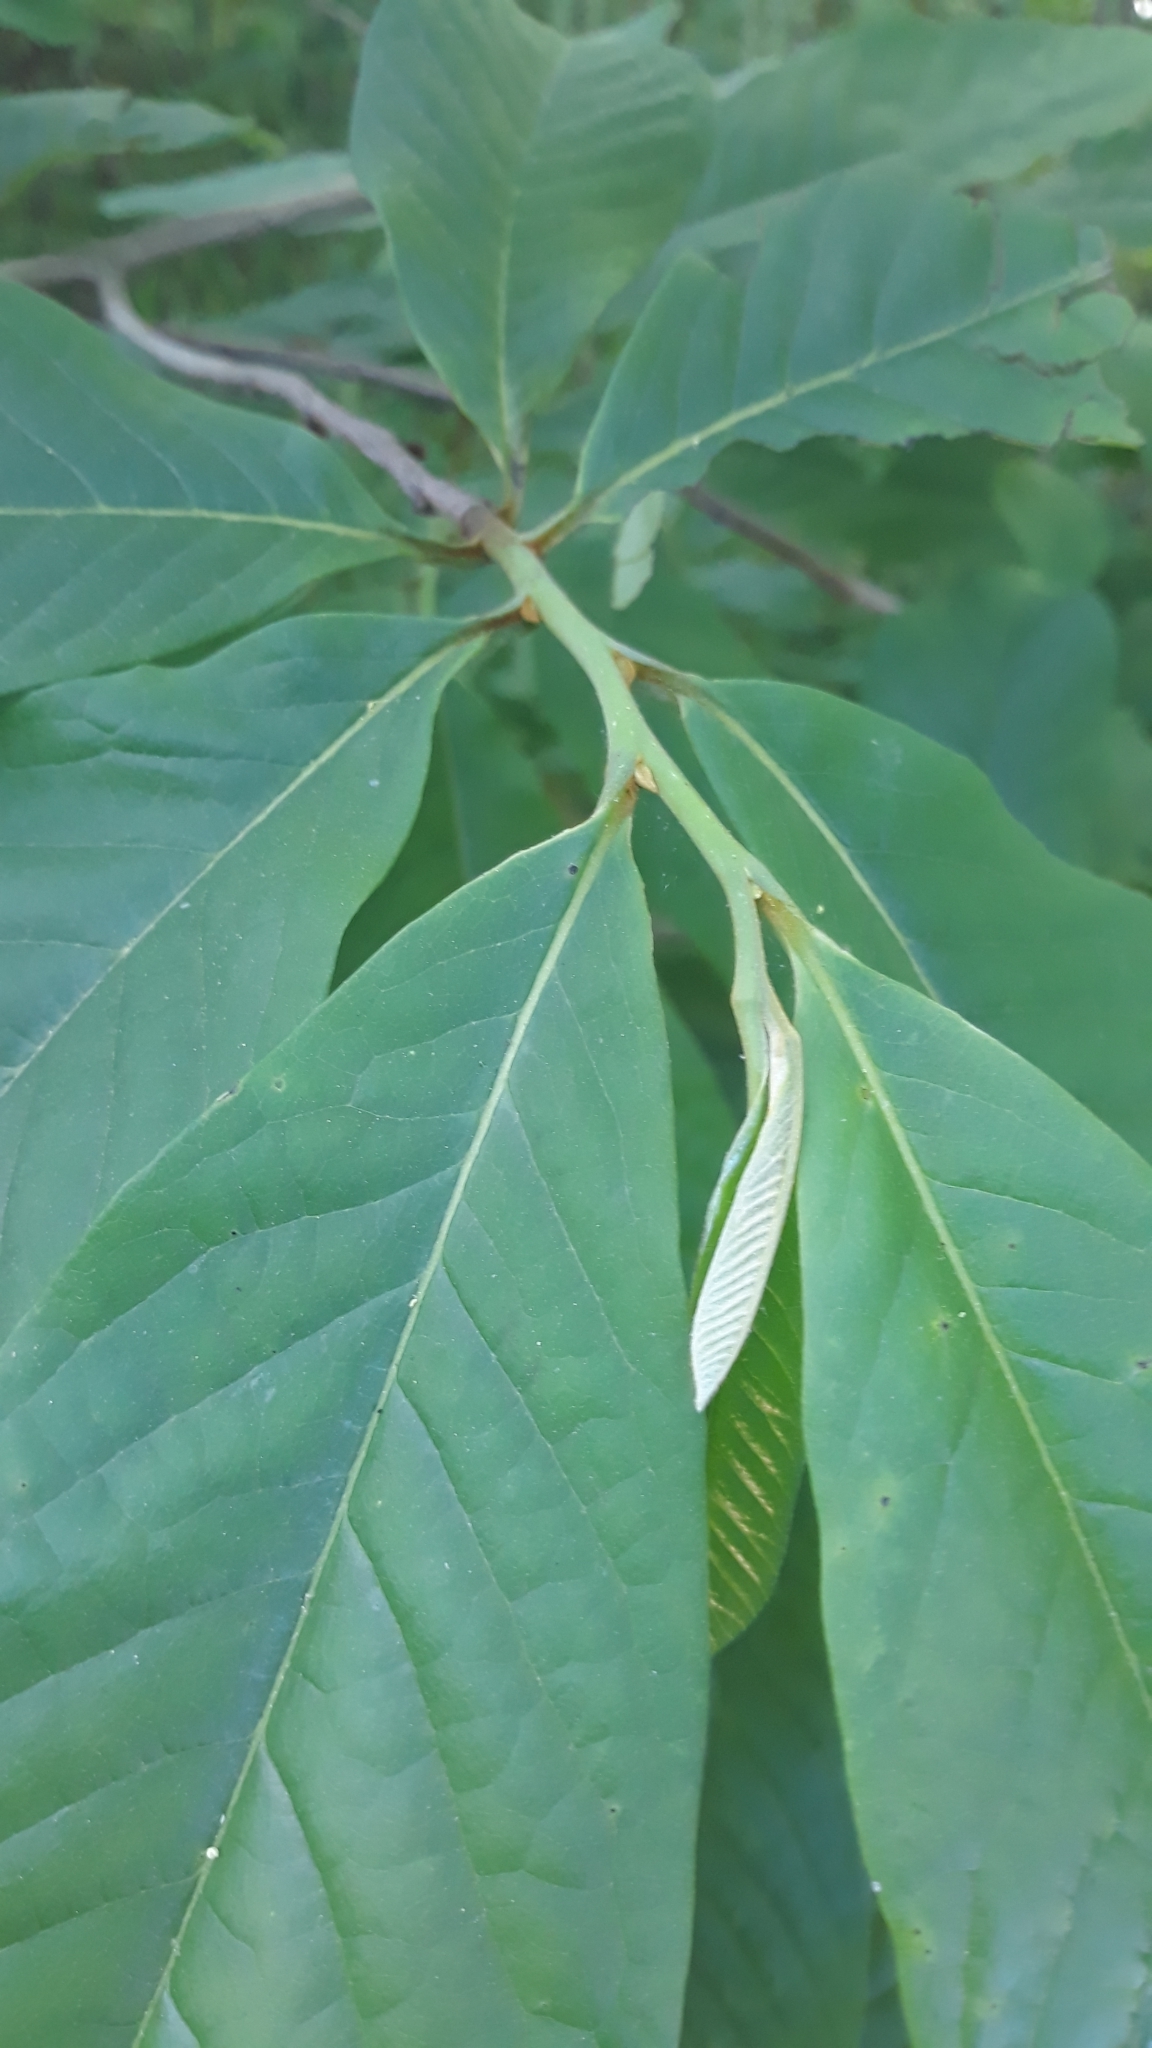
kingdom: Plantae
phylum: Tracheophyta
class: Magnoliopsida
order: Magnoliales
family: Annonaceae
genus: Asimina
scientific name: Asimina triloba
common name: Dog-banana
